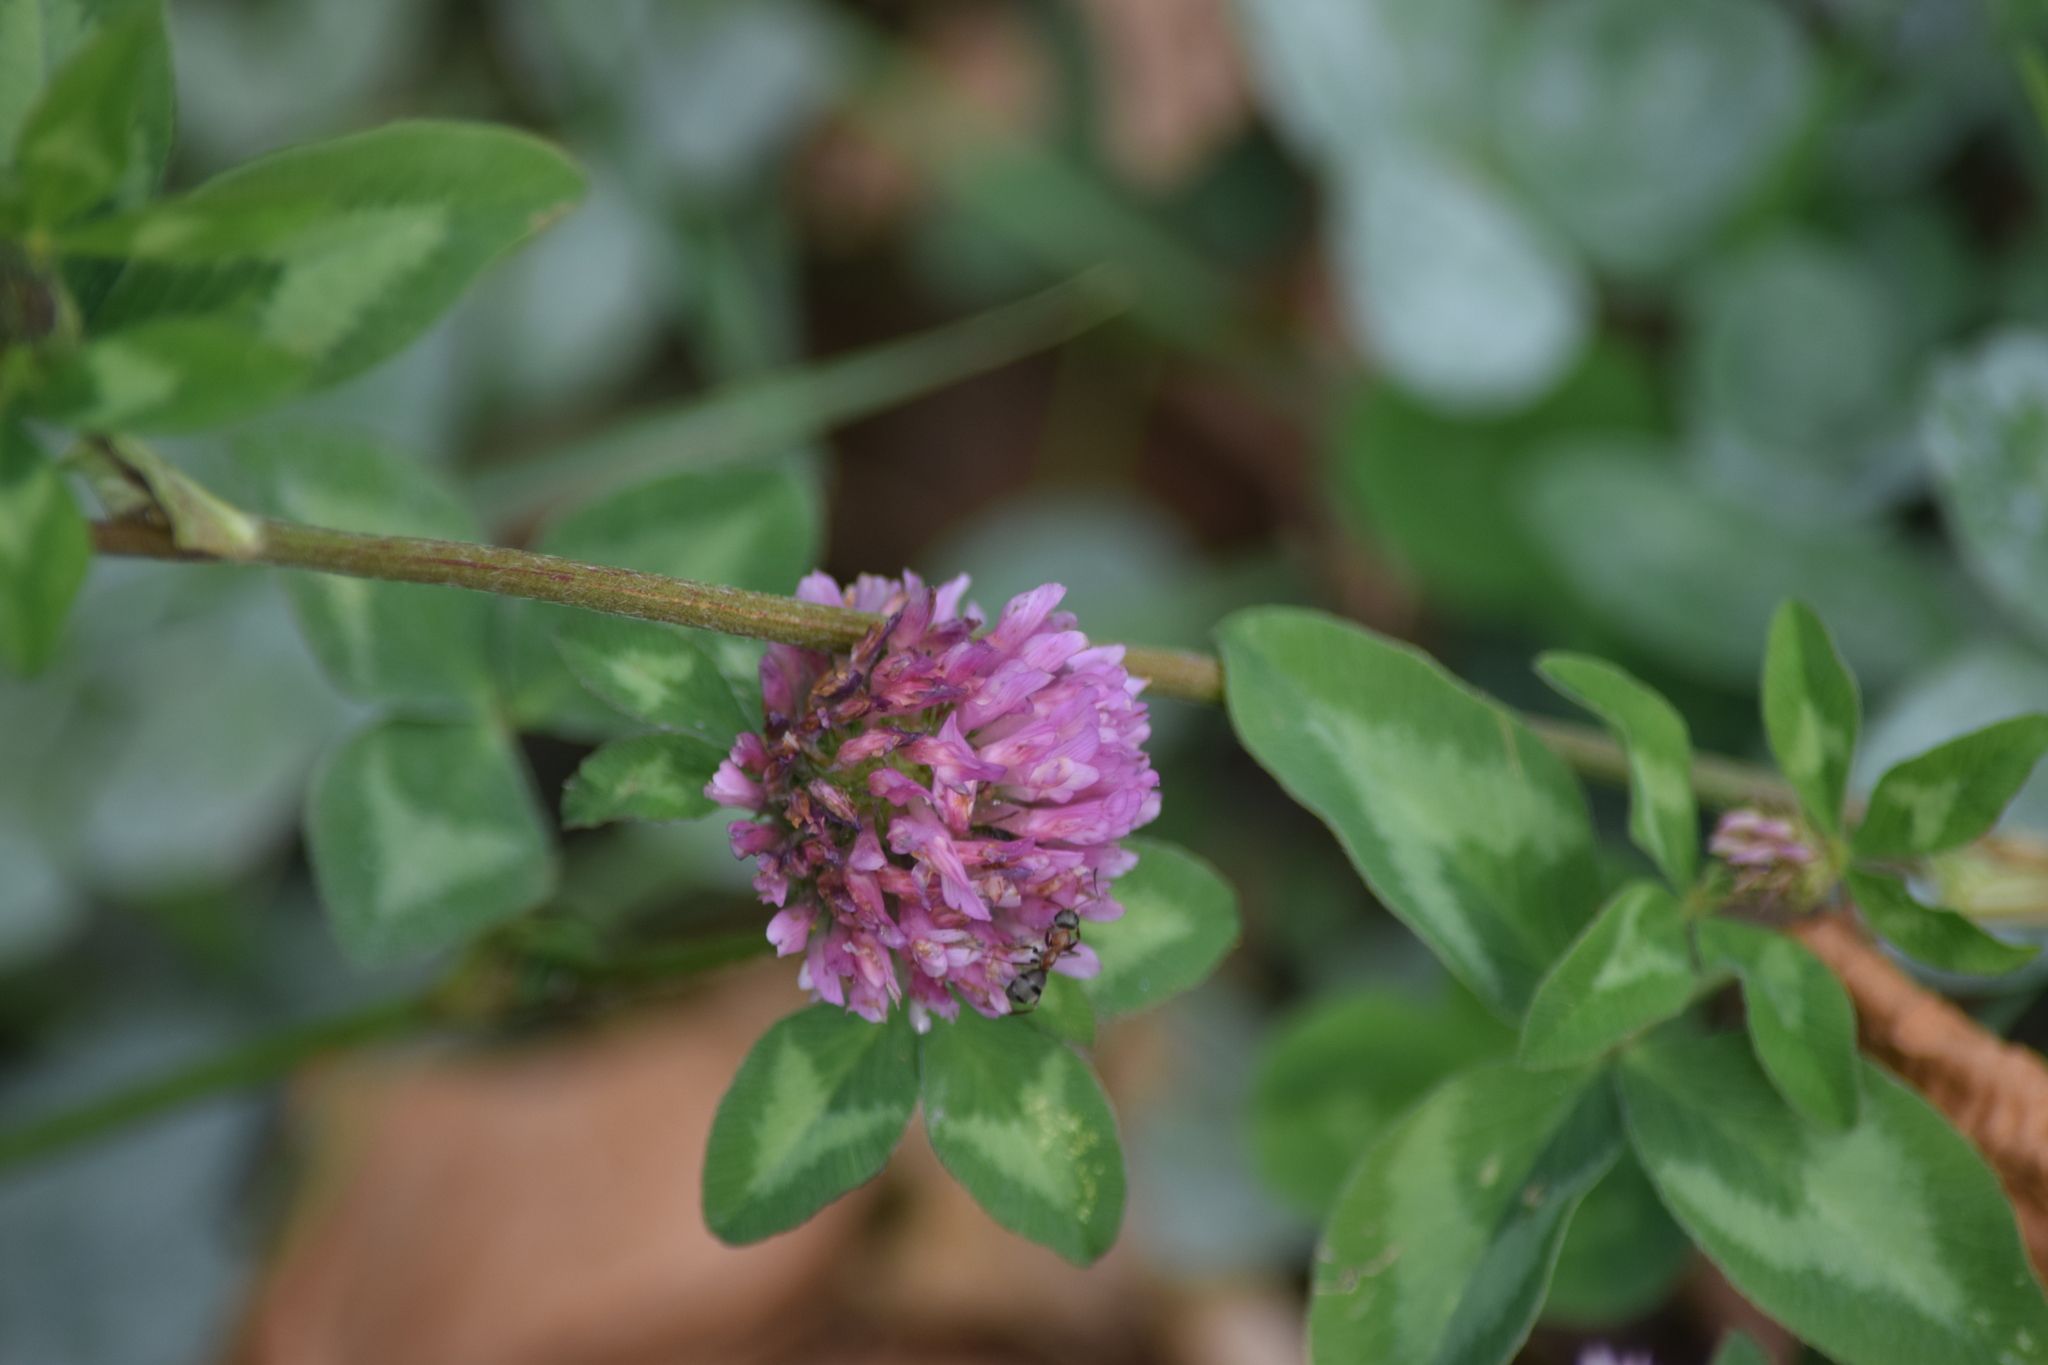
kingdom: Plantae
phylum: Tracheophyta
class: Magnoliopsida
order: Fabales
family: Fabaceae
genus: Trifolium
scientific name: Trifolium pratense
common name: Red clover
